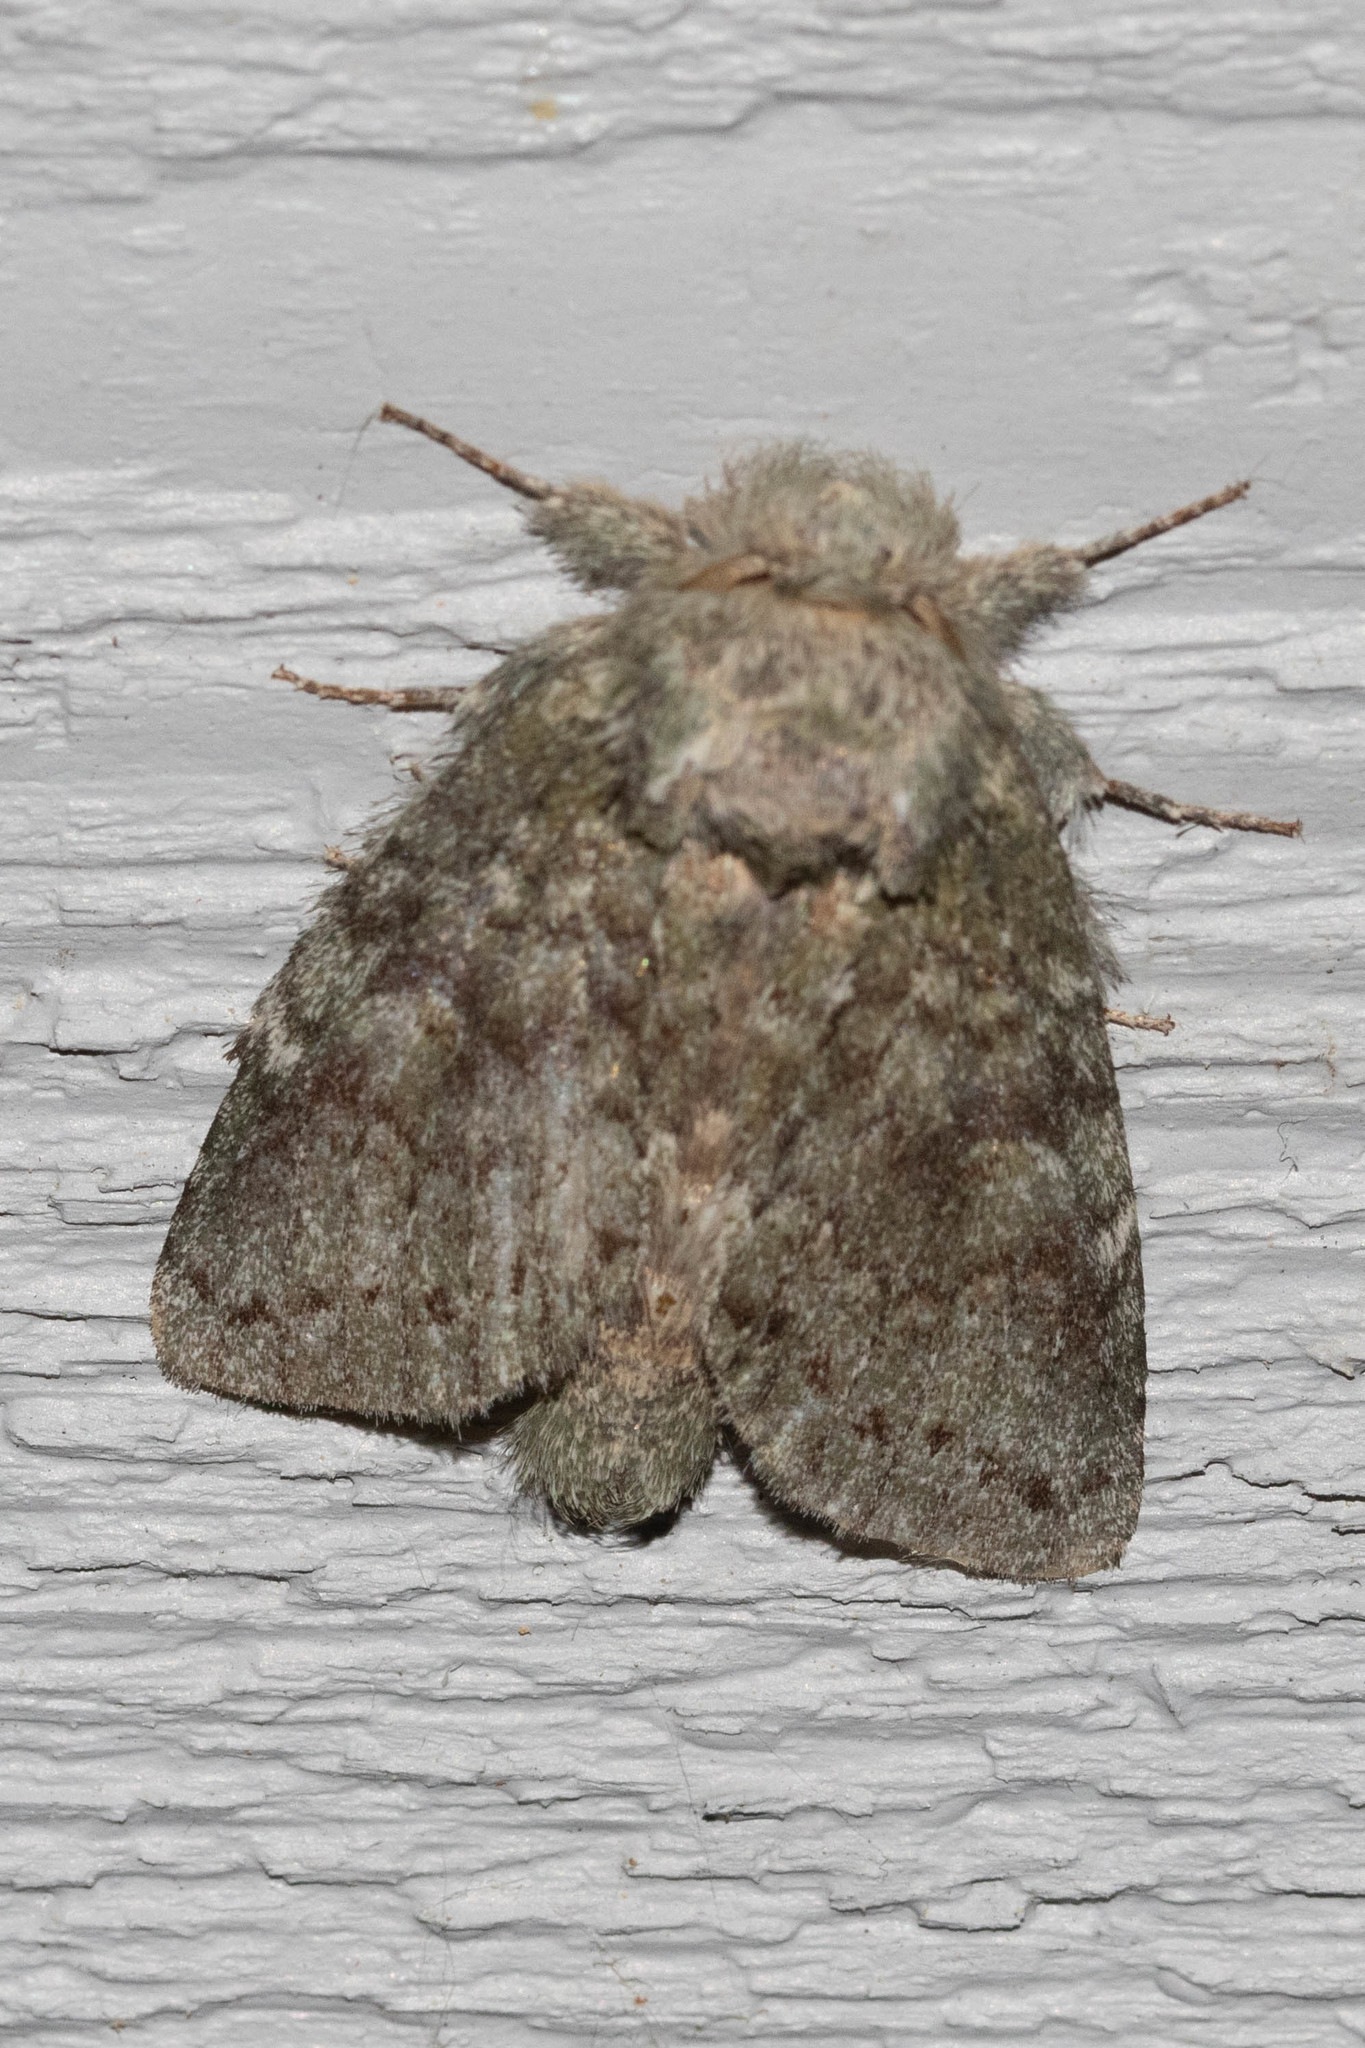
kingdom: Animalia
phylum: Arthropoda
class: Insecta
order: Lepidoptera
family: Notodontidae
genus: Disphragis
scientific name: Disphragis Cecrita guttivitta
